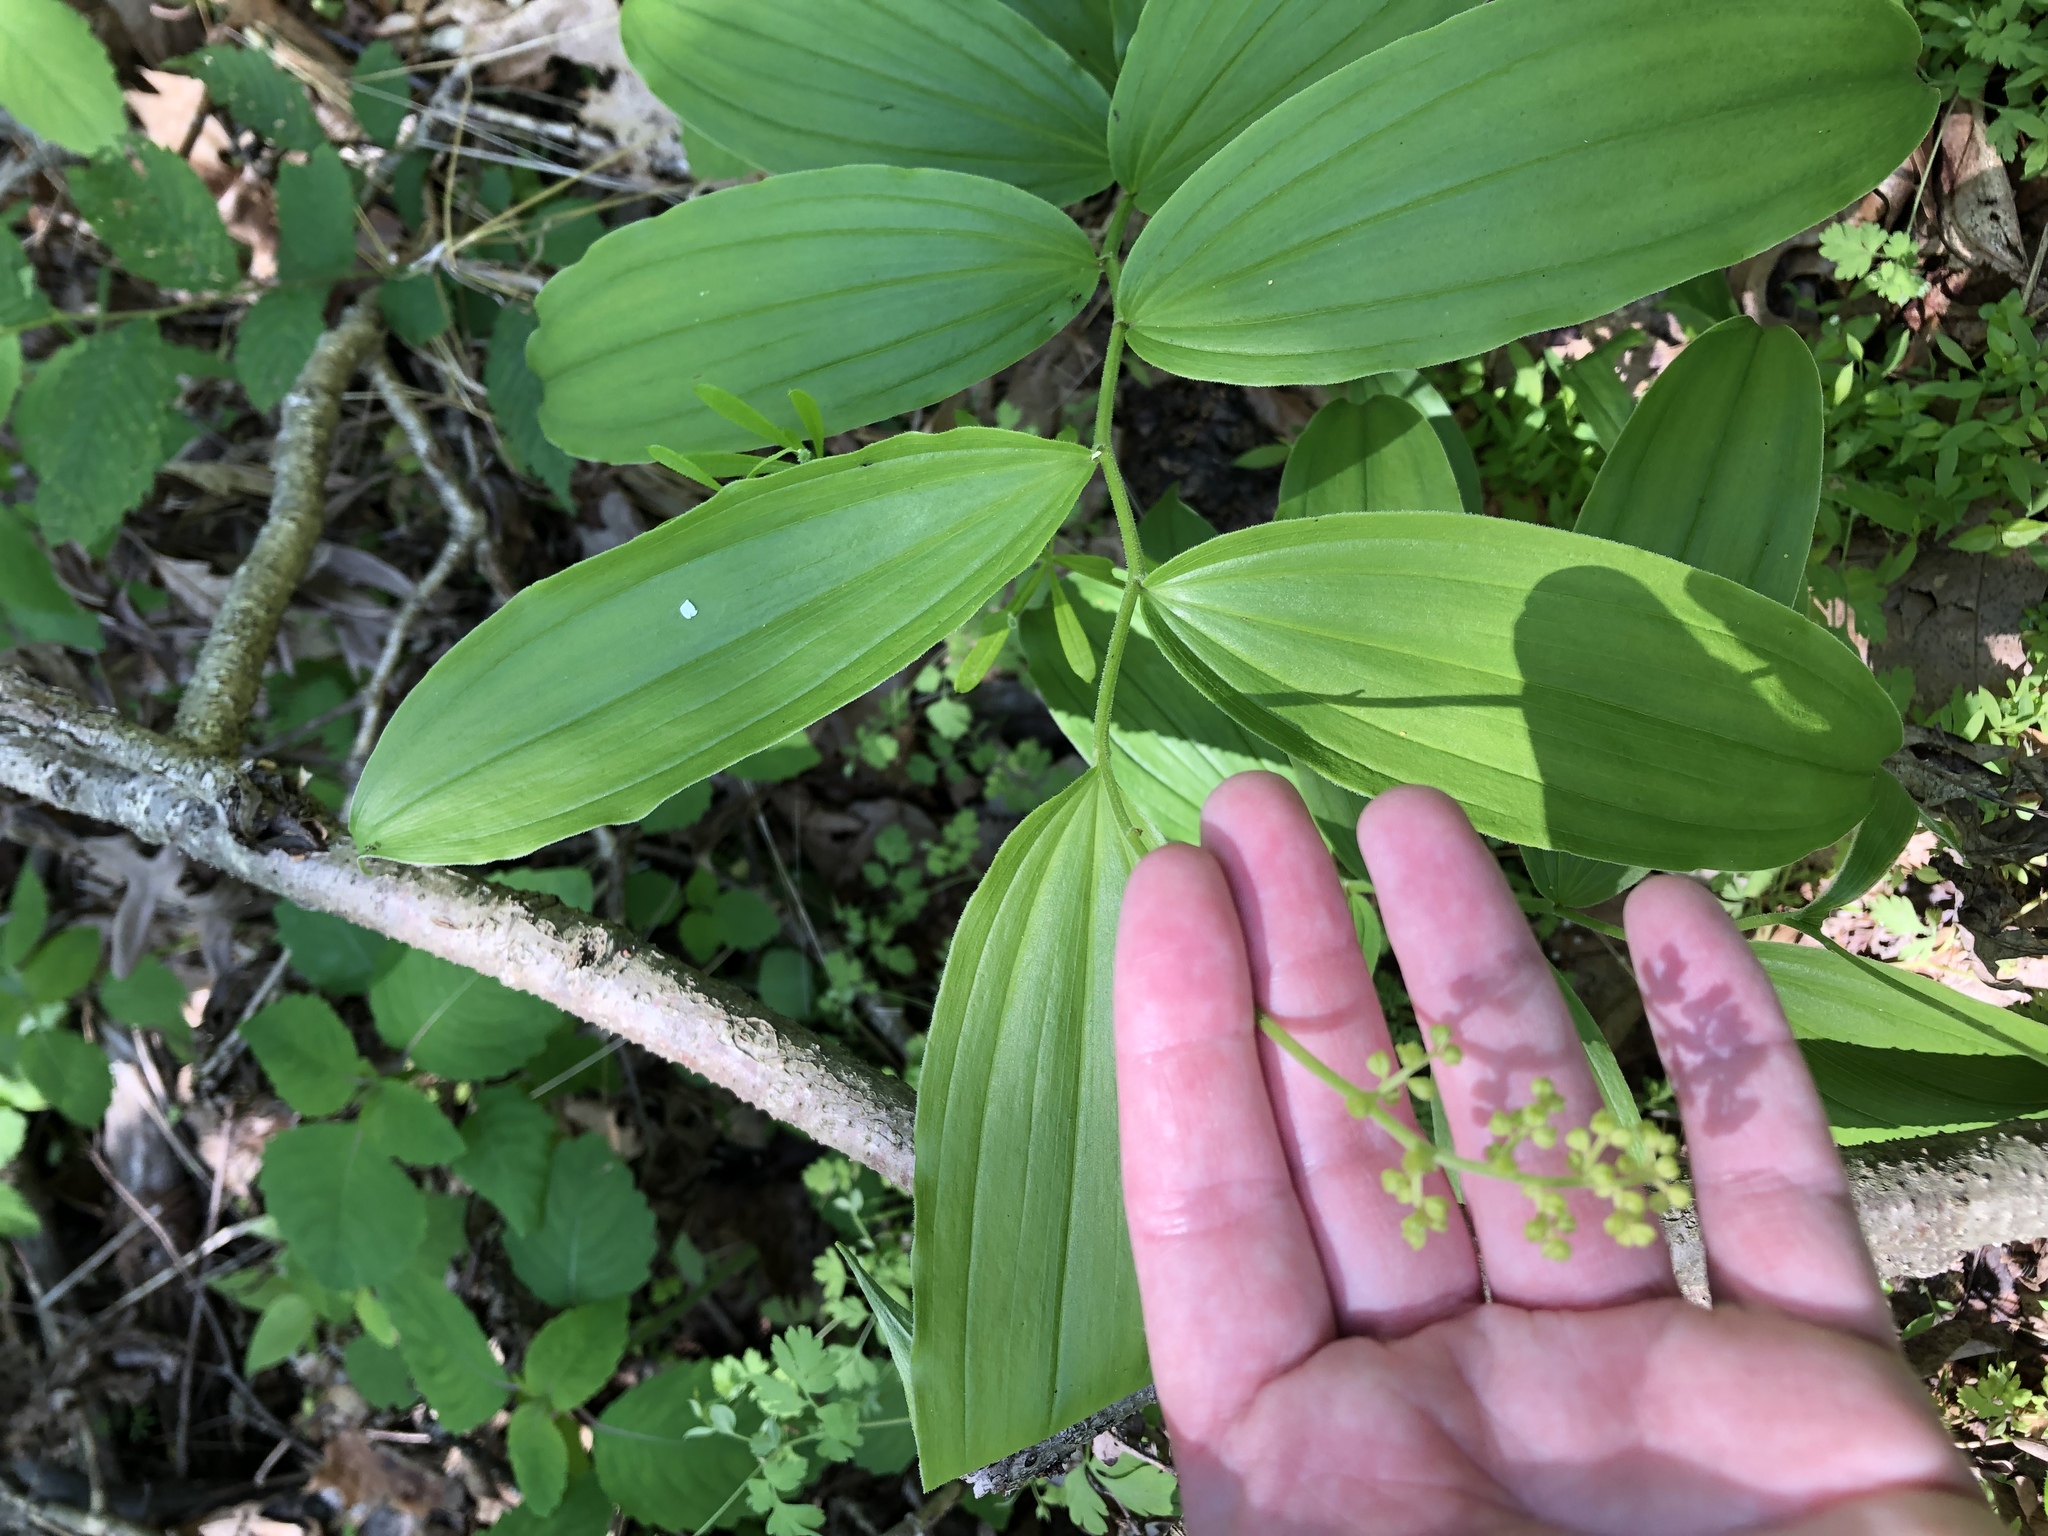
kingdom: Plantae
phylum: Tracheophyta
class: Liliopsida
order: Asparagales
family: Asparagaceae
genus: Maianthemum
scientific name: Maianthemum racemosum
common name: False spikenard
